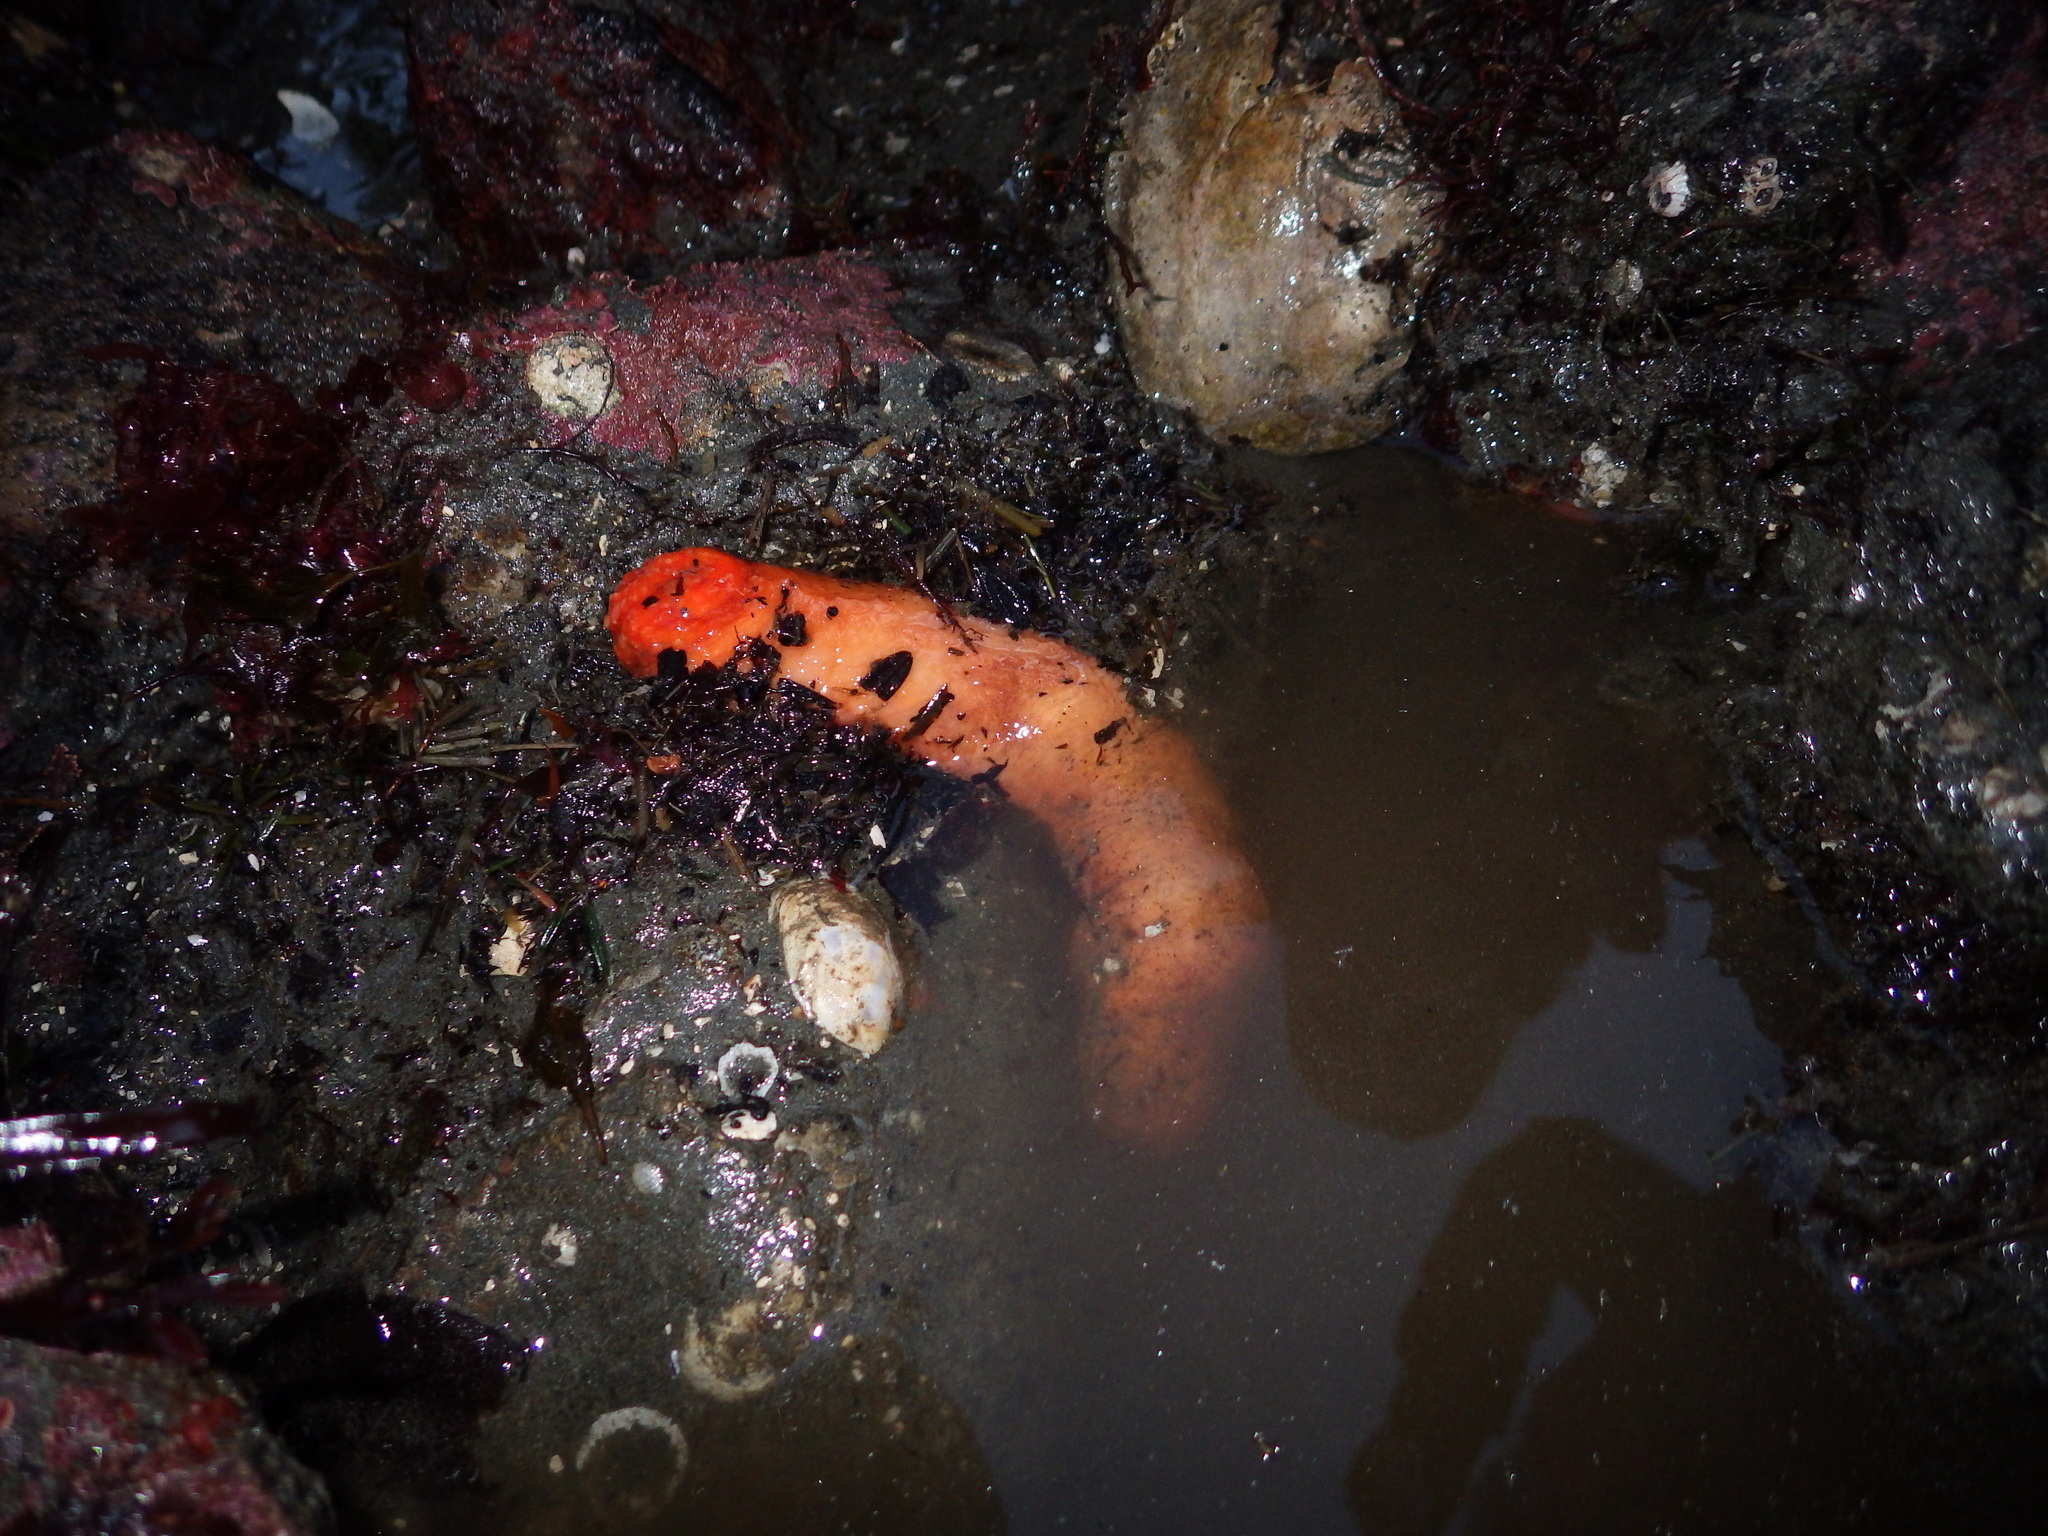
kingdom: Animalia
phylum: Echinodermata
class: Holothuroidea
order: Dendrochirotida
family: Cucumariidae
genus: Cucumaria
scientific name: Cucumaria miniata
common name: Orange sea cucumber
